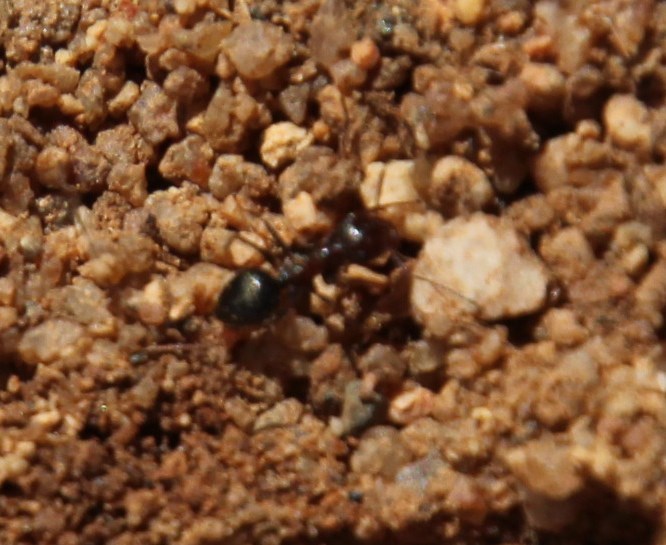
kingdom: Animalia
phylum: Arthropoda
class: Insecta
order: Hymenoptera
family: Formicidae
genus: Anoplolepis
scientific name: Anoplolepis steingroeveri
